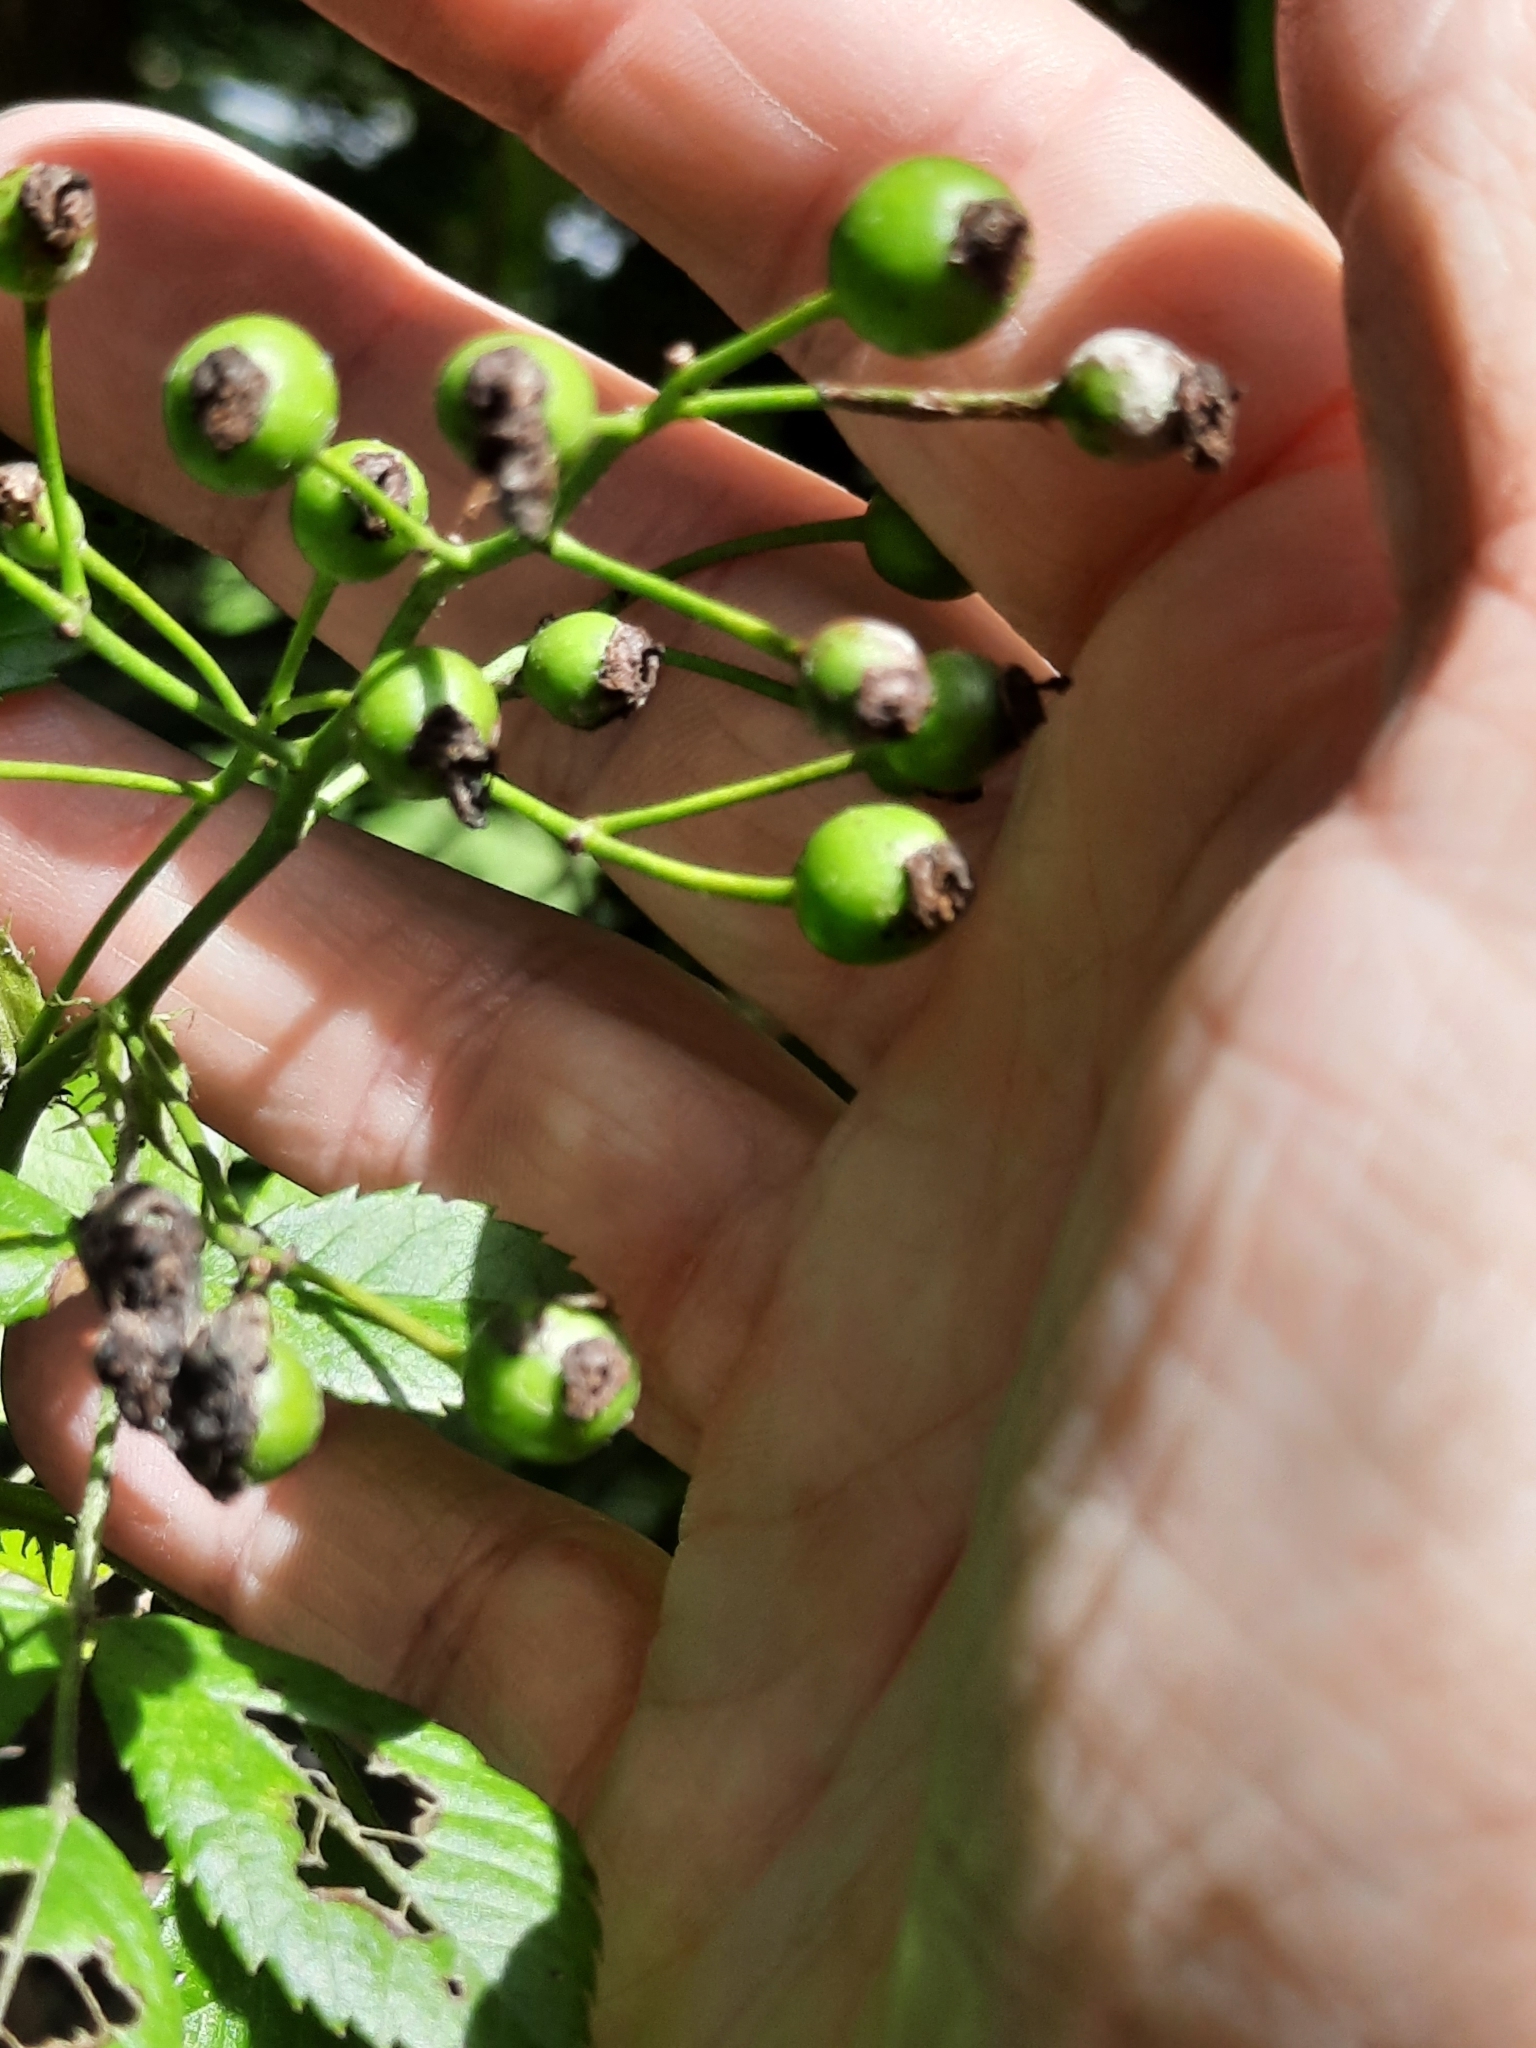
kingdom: Plantae
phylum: Tracheophyta
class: Magnoliopsida
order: Rosales
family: Rosaceae
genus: Rosa
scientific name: Rosa multiflora
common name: Multiflora rose
